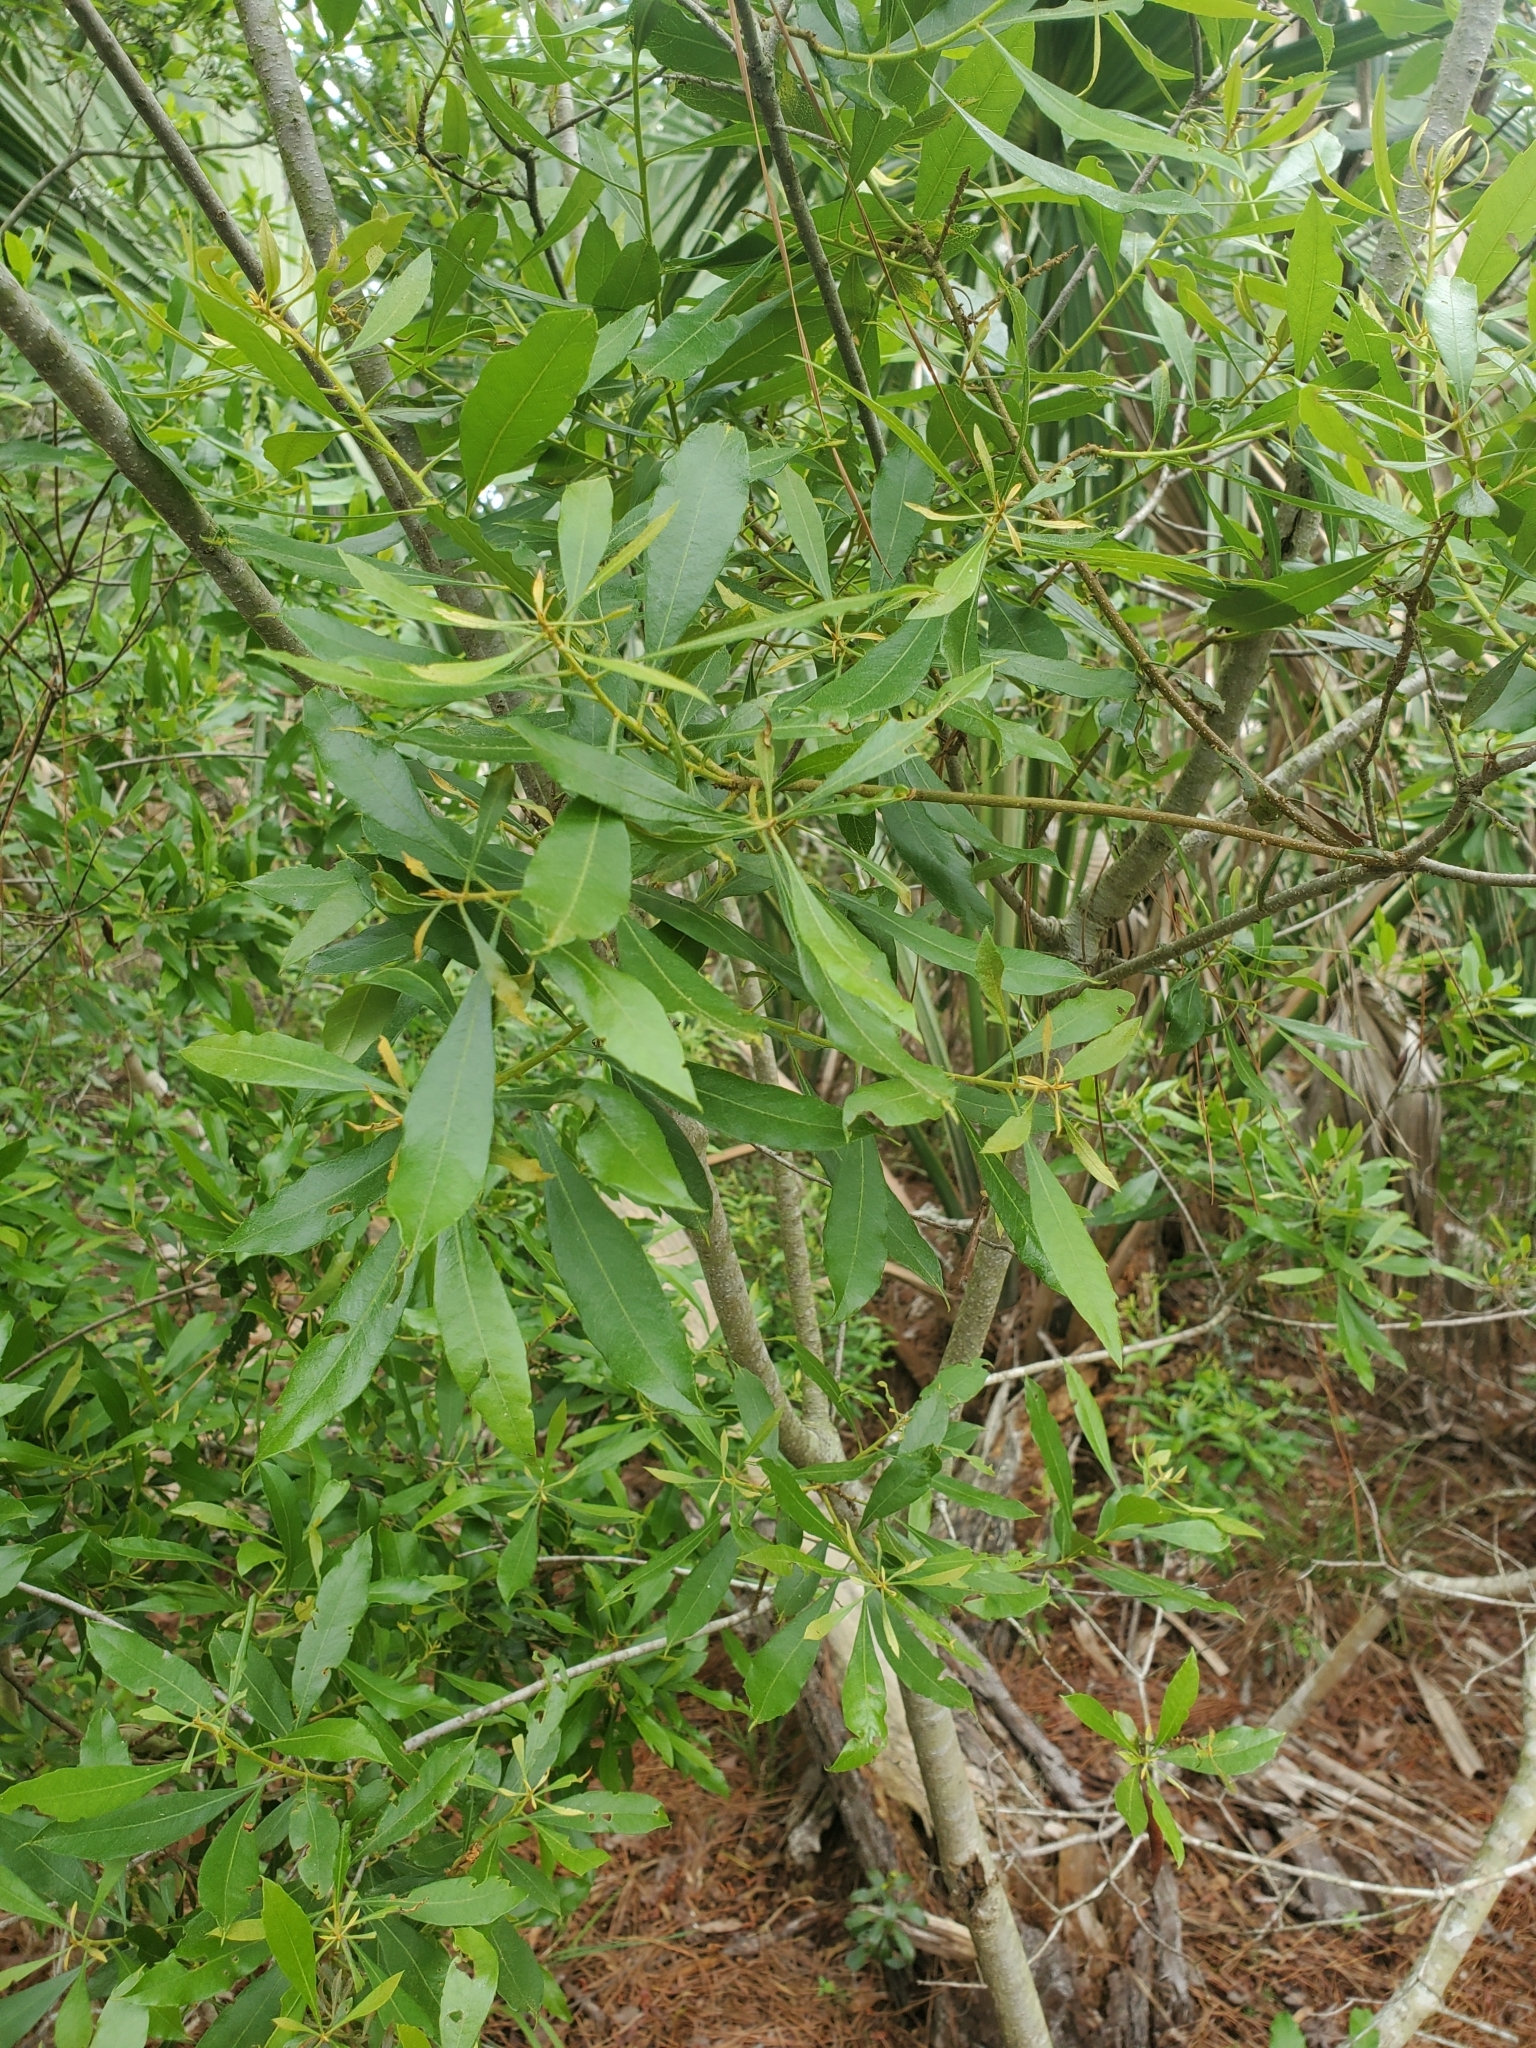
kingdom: Plantae
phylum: Tracheophyta
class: Magnoliopsida
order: Fagales
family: Myricaceae
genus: Morella
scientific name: Morella cerifera
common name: Wax myrtle
